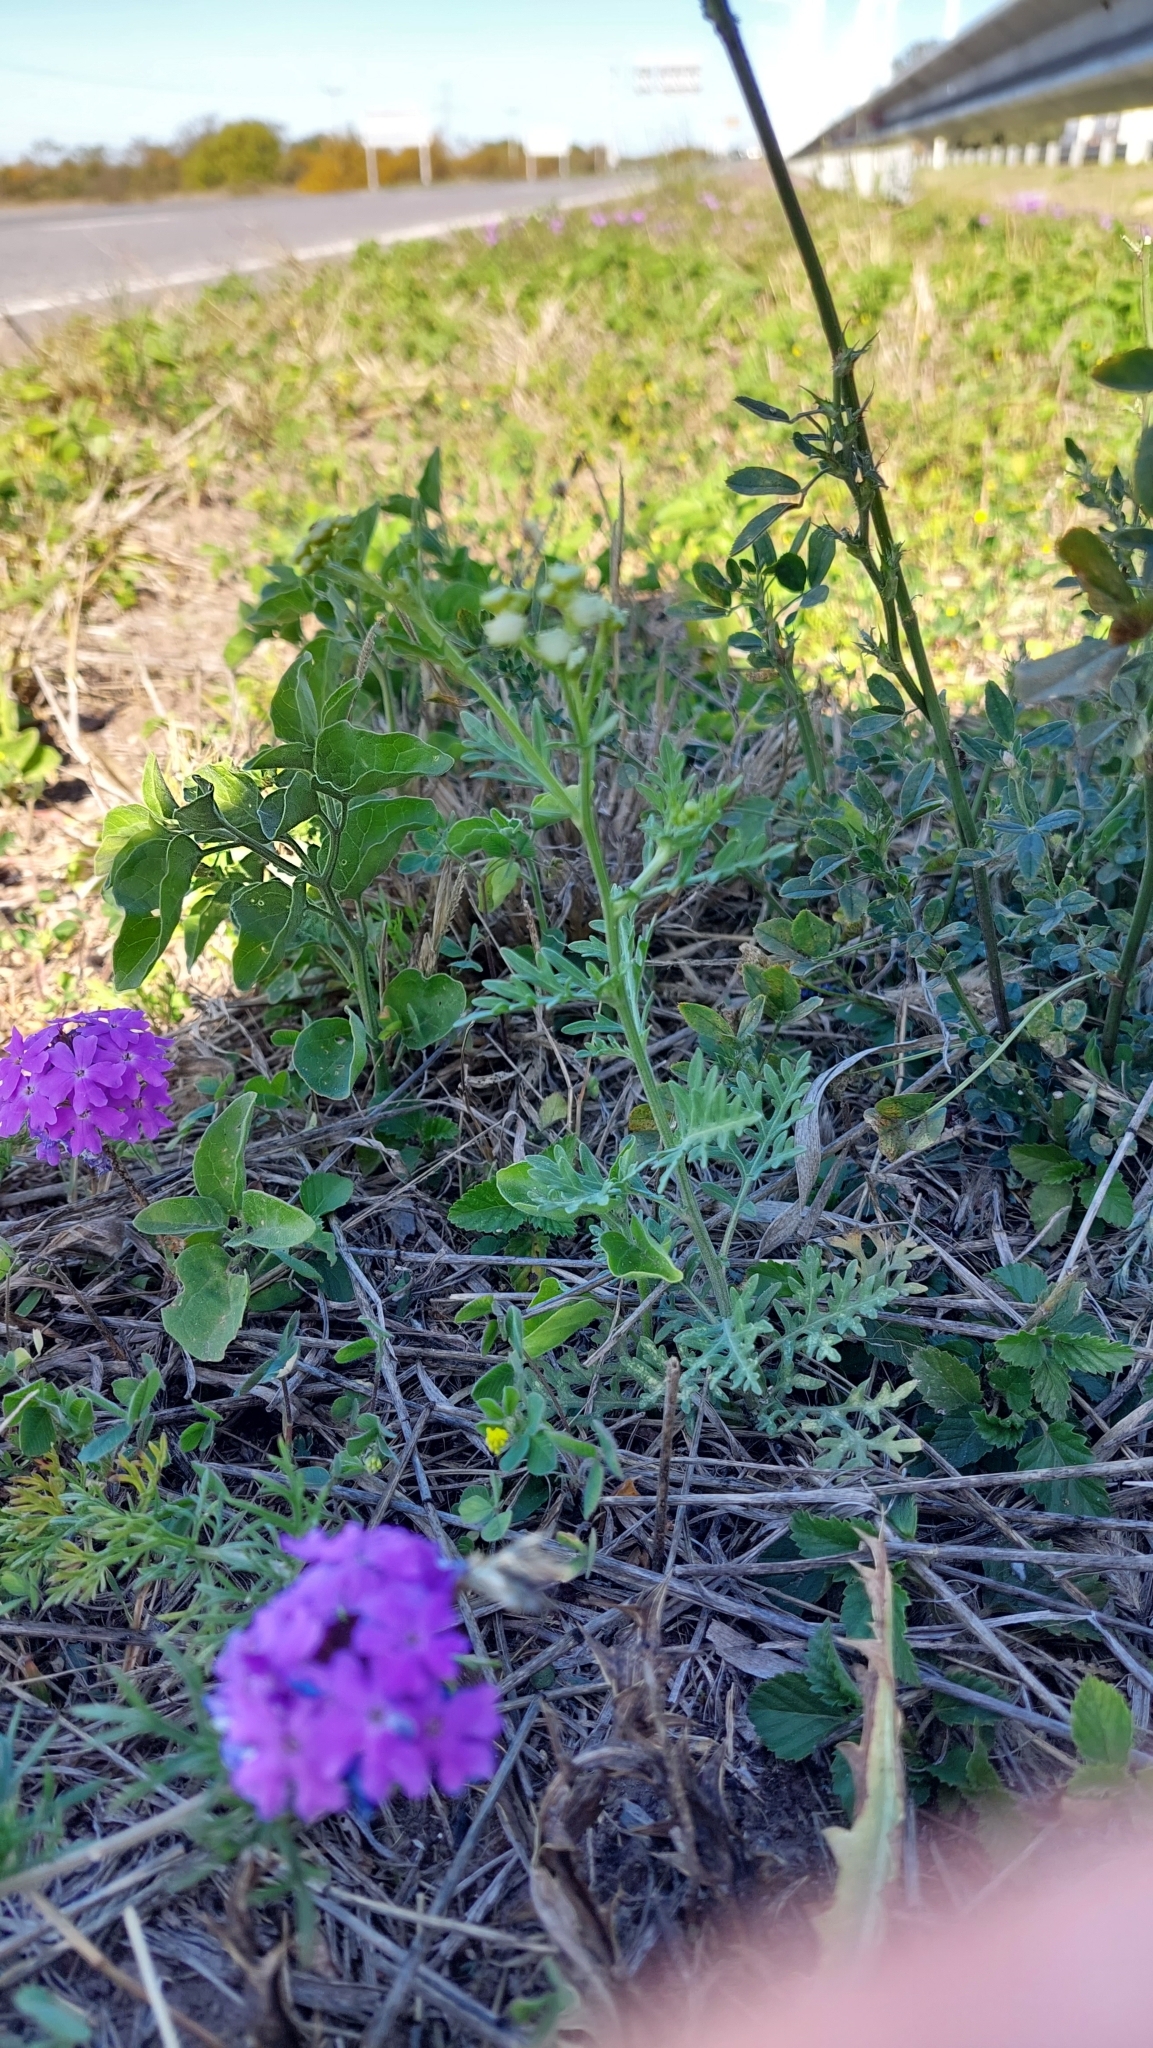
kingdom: Plantae
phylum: Tracheophyta
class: Magnoliopsida
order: Asterales
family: Asteraceae
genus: Parthenium
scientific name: Parthenium hysterophorus
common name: Santa maria feverfew
